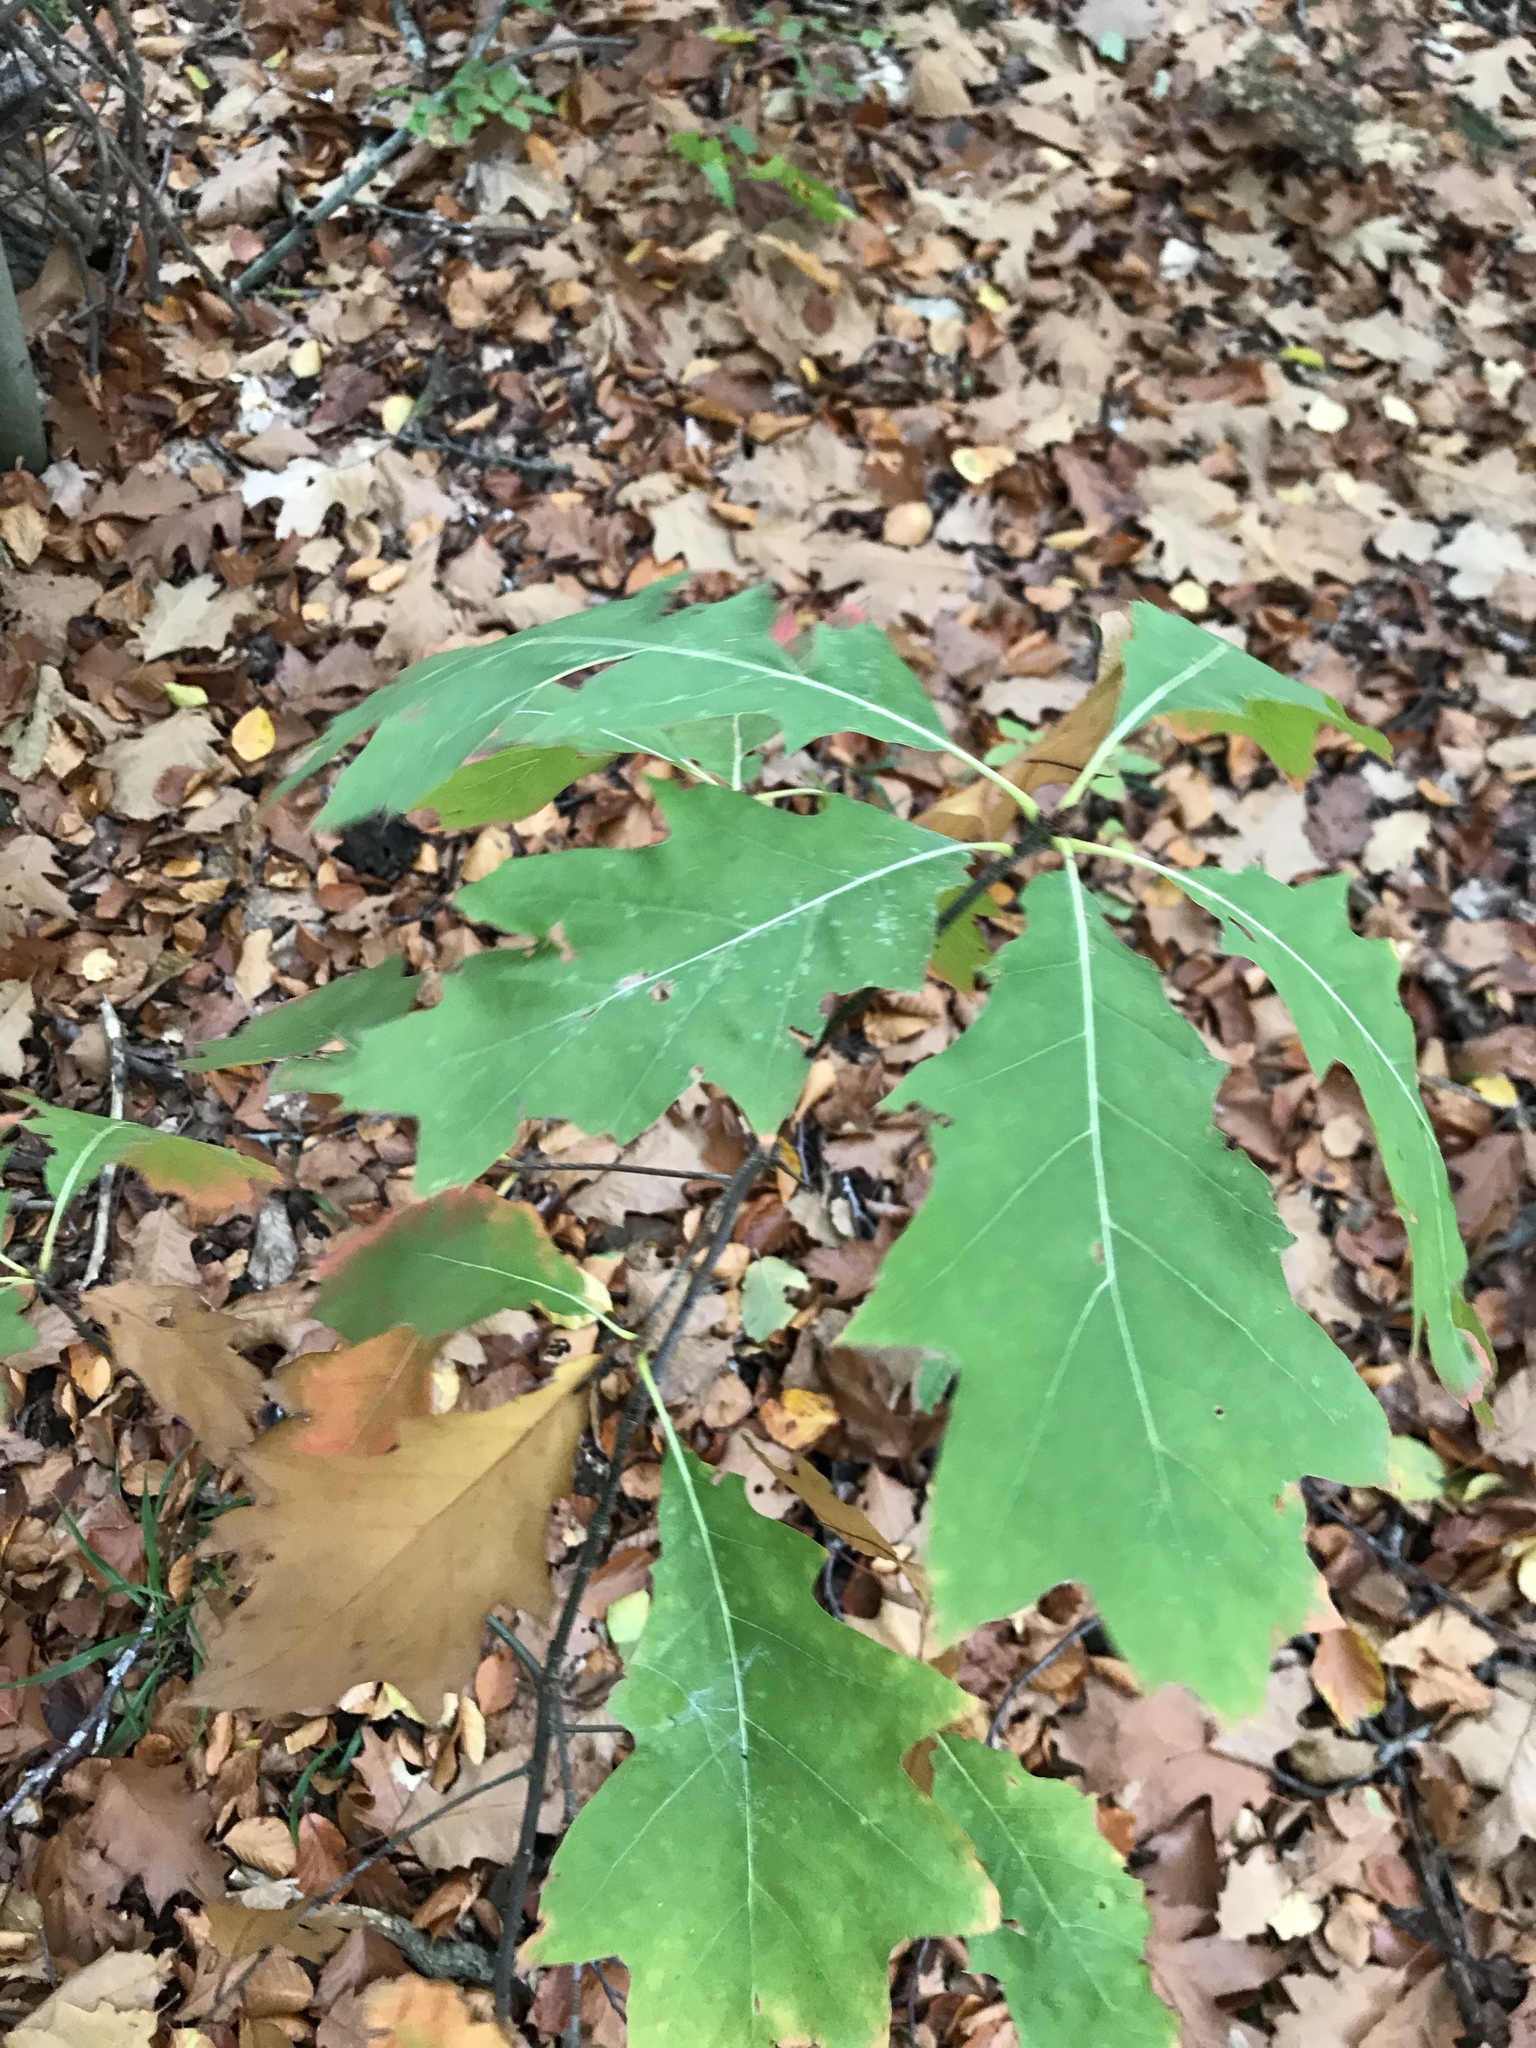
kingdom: Plantae
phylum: Tracheophyta
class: Magnoliopsida
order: Fagales
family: Fagaceae
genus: Quercus
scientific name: Quercus rubra
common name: Red oak
